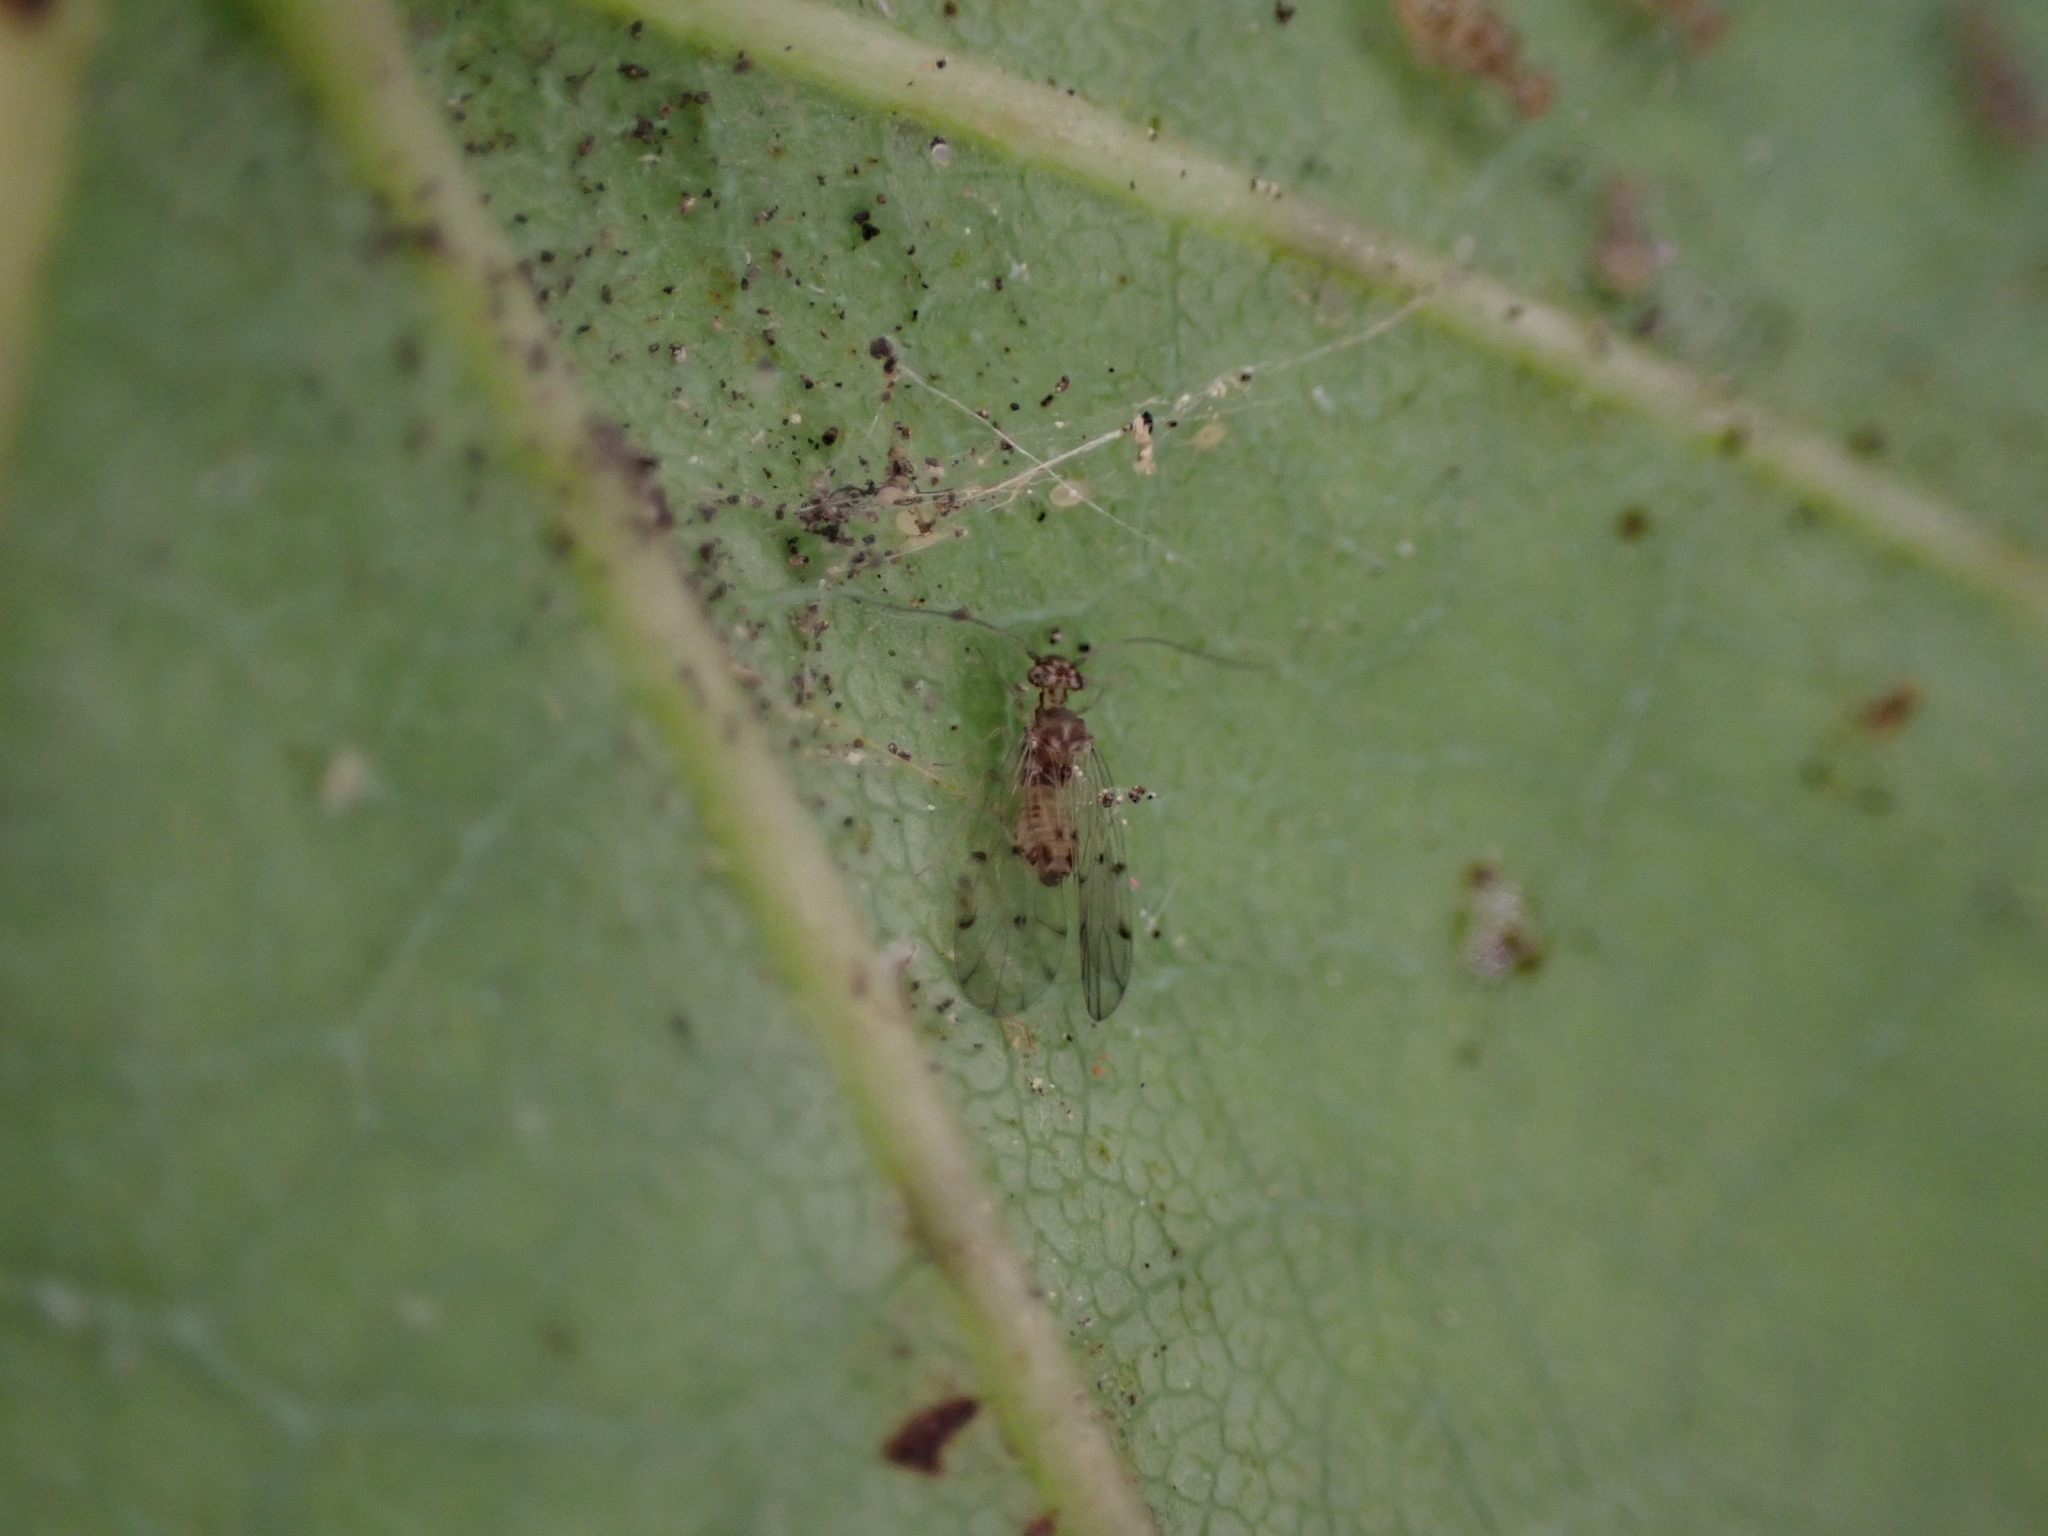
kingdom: Animalia
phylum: Arthropoda
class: Insecta
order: Psocodea
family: Ectopsocidae
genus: Ectopsocus
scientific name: Ectopsocus petersi
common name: Medium-sized bark louse
